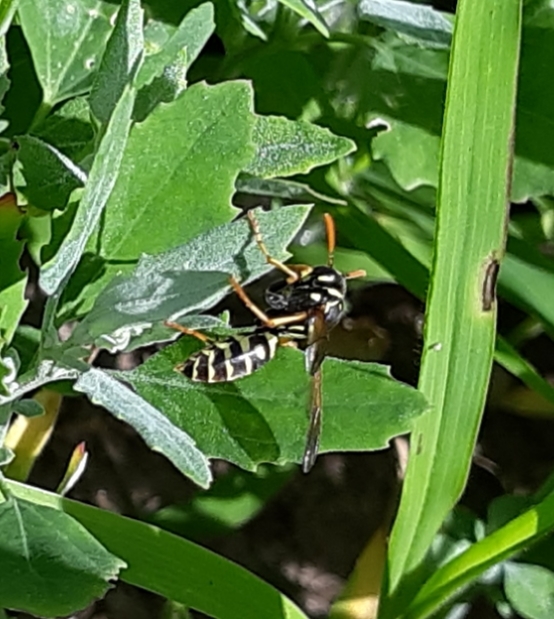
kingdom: Animalia
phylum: Arthropoda
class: Insecta
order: Hymenoptera
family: Eumenidae
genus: Polistes
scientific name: Polistes dominula
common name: Paper wasp
